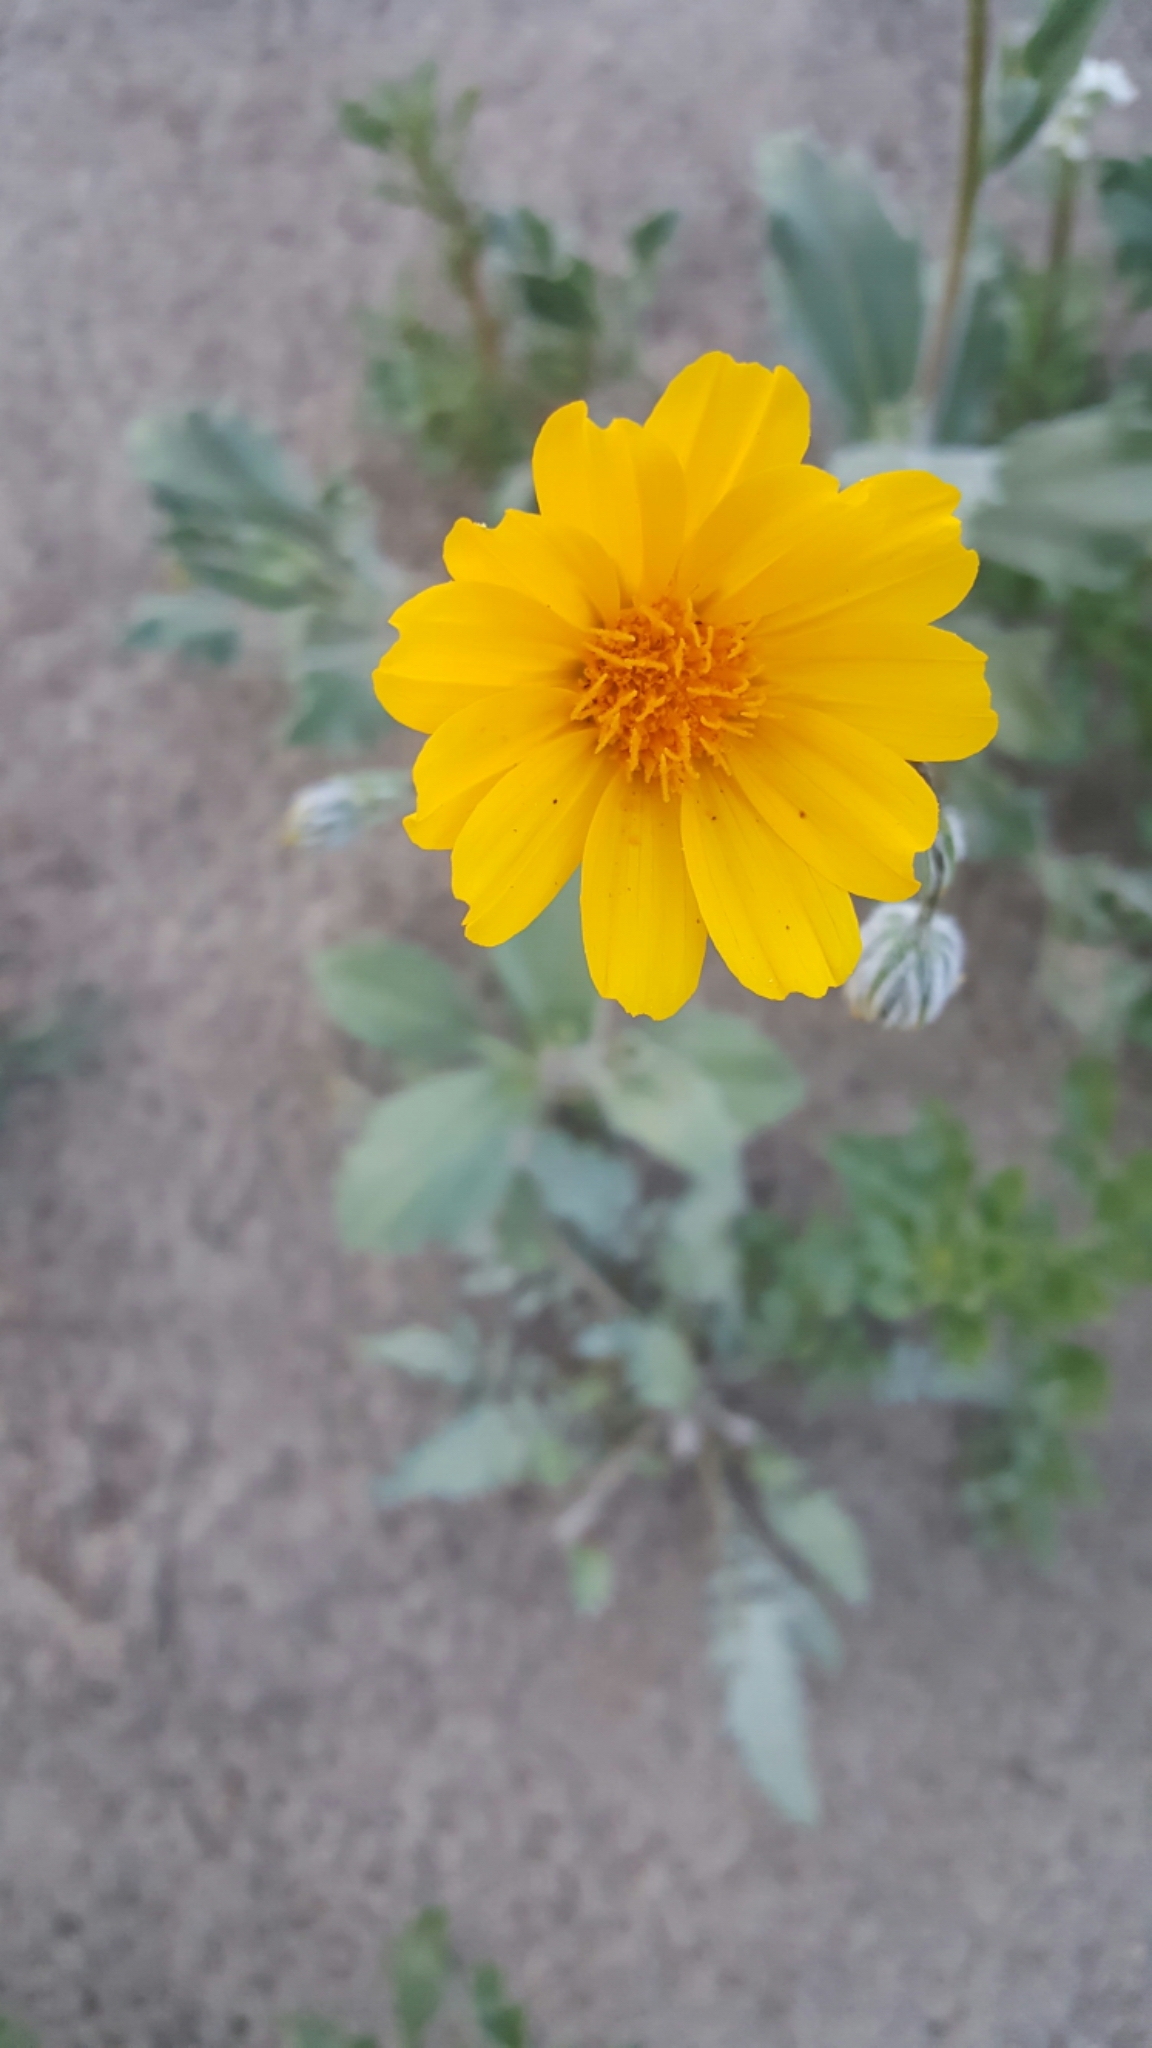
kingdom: Plantae
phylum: Tracheophyta
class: Magnoliopsida
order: Asterales
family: Asteraceae
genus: Geraea
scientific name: Geraea canescens
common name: Desert-gold
